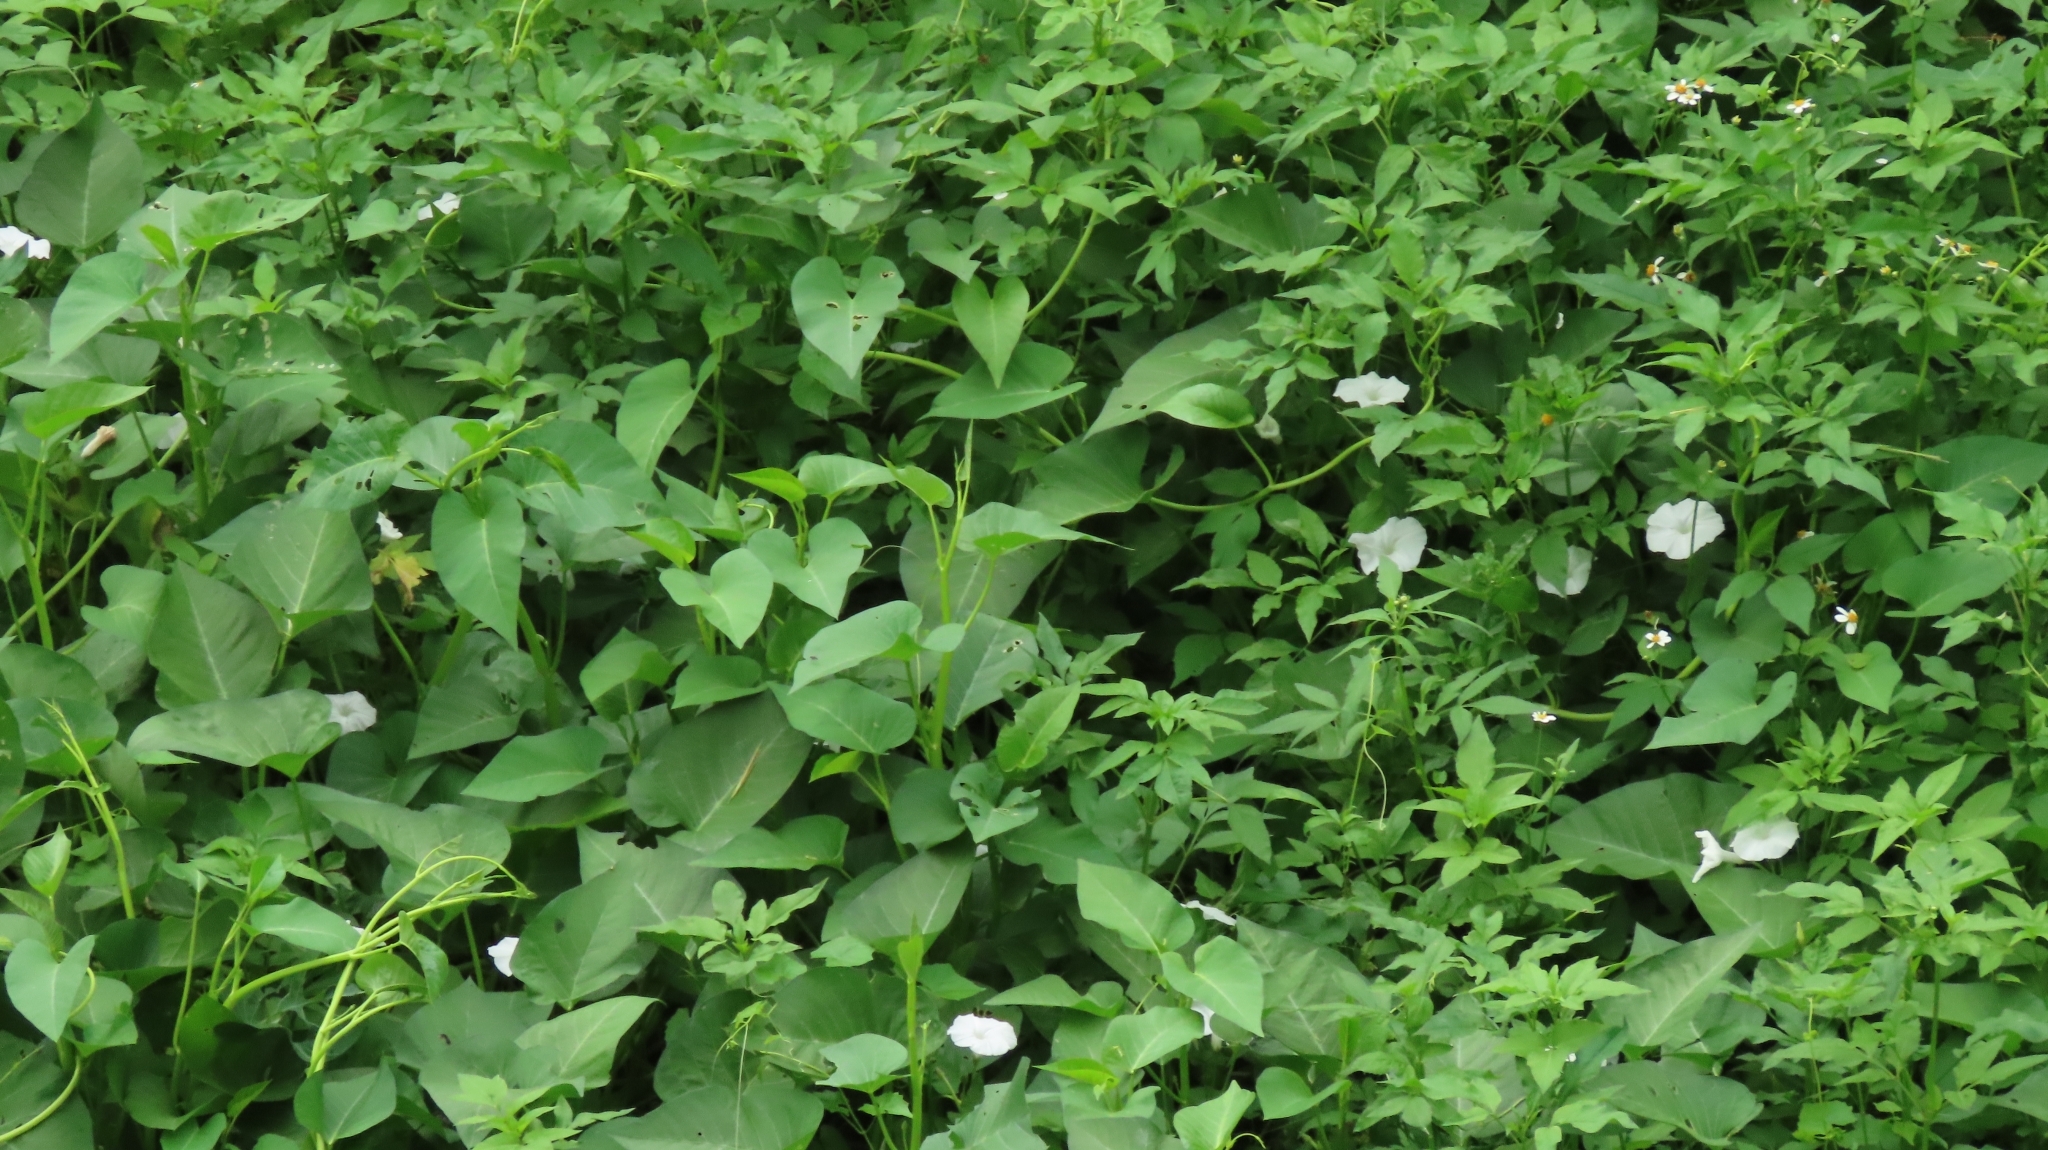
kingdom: Plantae
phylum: Tracheophyta
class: Magnoliopsida
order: Solanales
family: Convolvulaceae
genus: Ipomoea
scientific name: Ipomoea aquatica
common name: Swamp morning-glory
